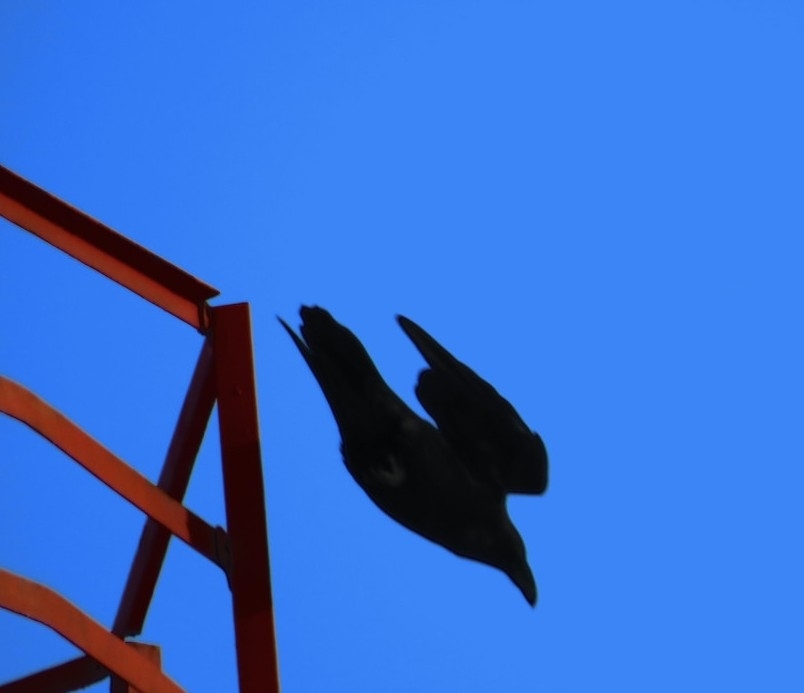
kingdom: Animalia
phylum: Chordata
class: Aves
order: Passeriformes
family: Corvidae
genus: Corvus
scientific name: Corvus corax
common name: Common raven
